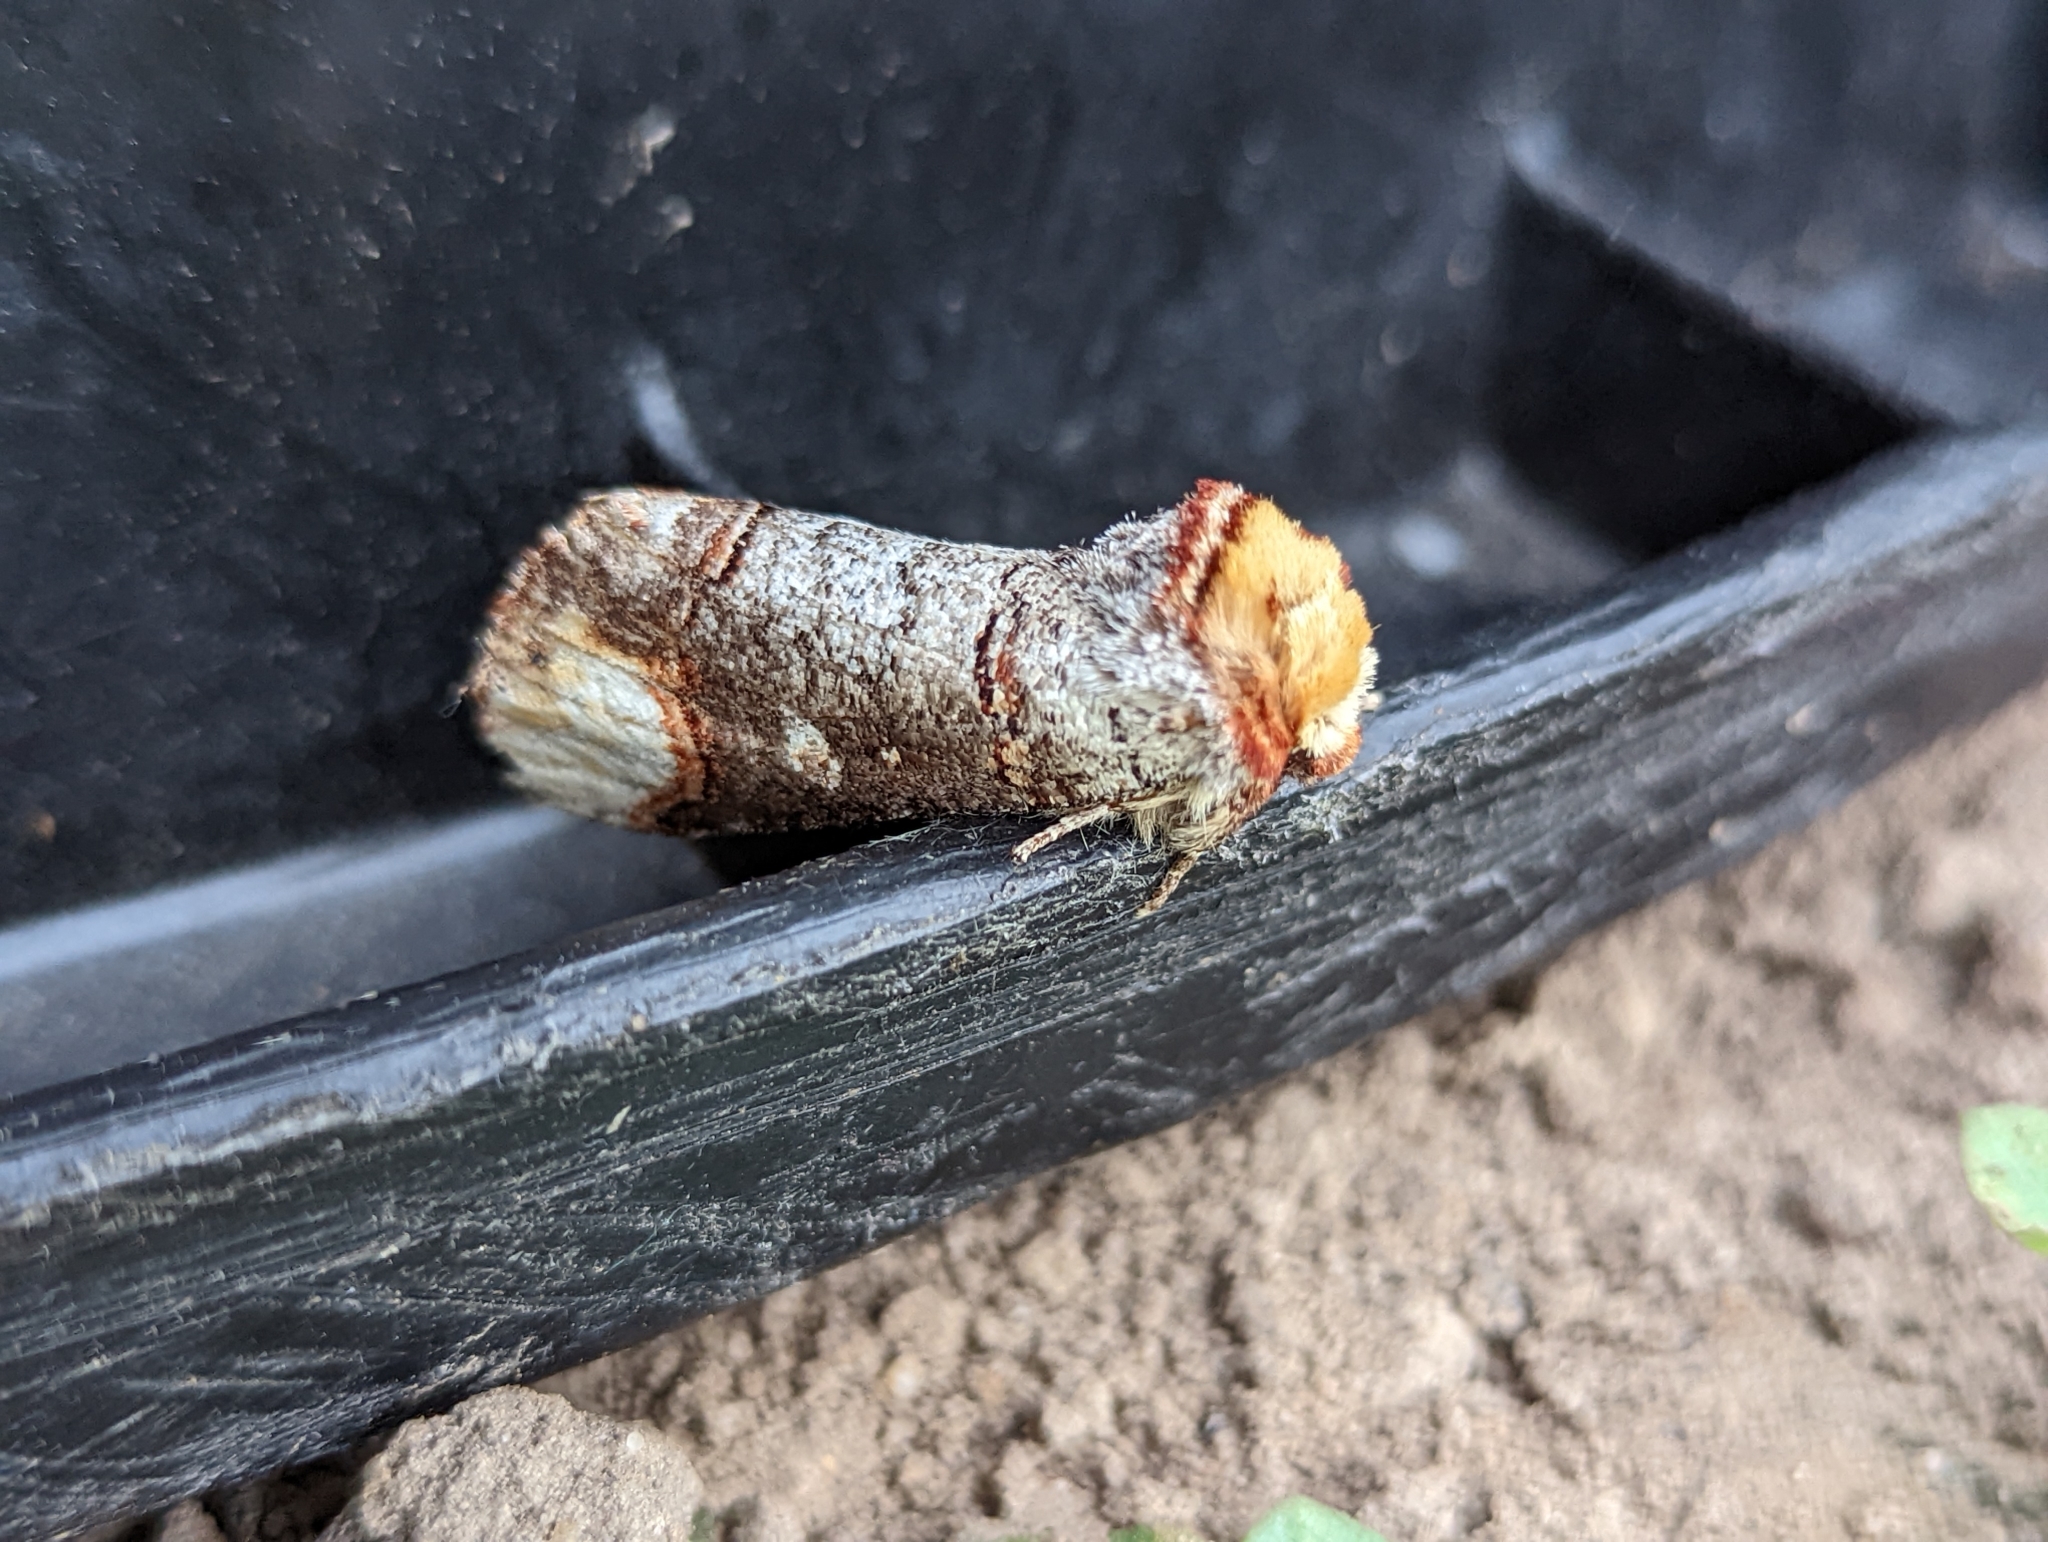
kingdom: Animalia
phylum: Arthropoda
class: Insecta
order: Lepidoptera
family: Notodontidae
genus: Phalera
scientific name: Phalera bucephala
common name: Buff-tip
